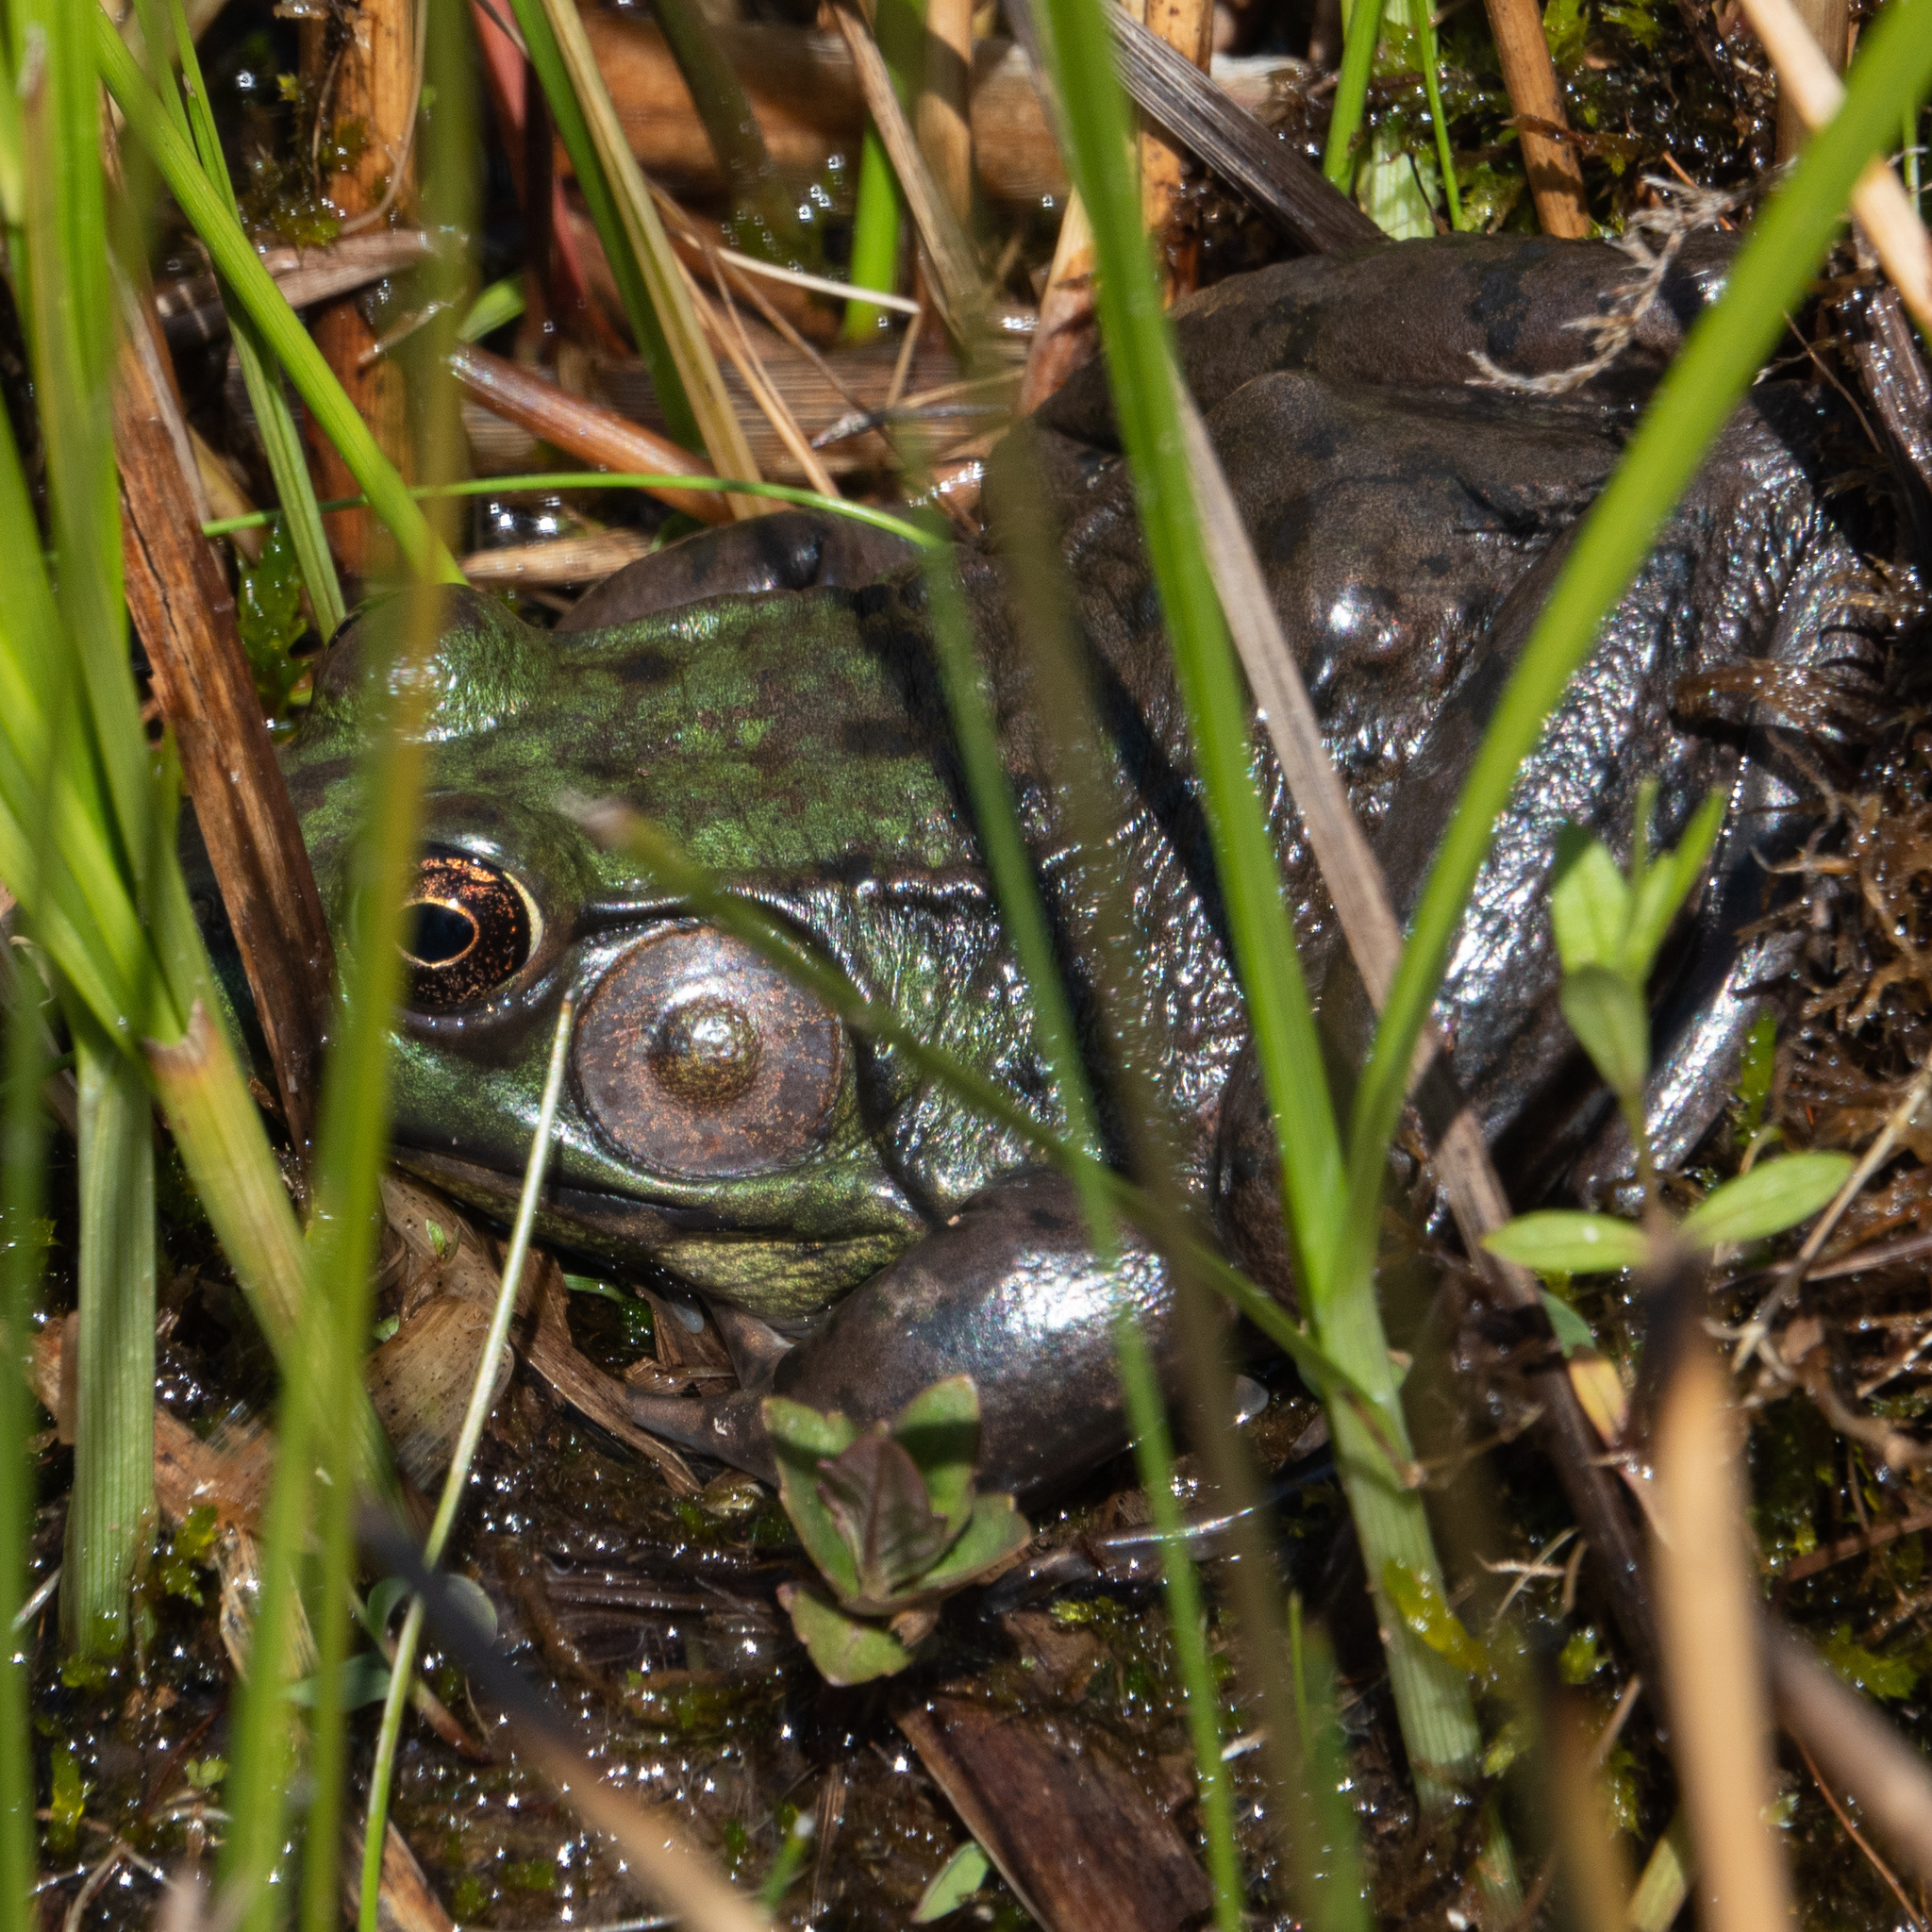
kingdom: Animalia
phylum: Chordata
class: Amphibia
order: Anura
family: Ranidae
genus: Lithobates
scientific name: Lithobates clamitans
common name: Green frog
